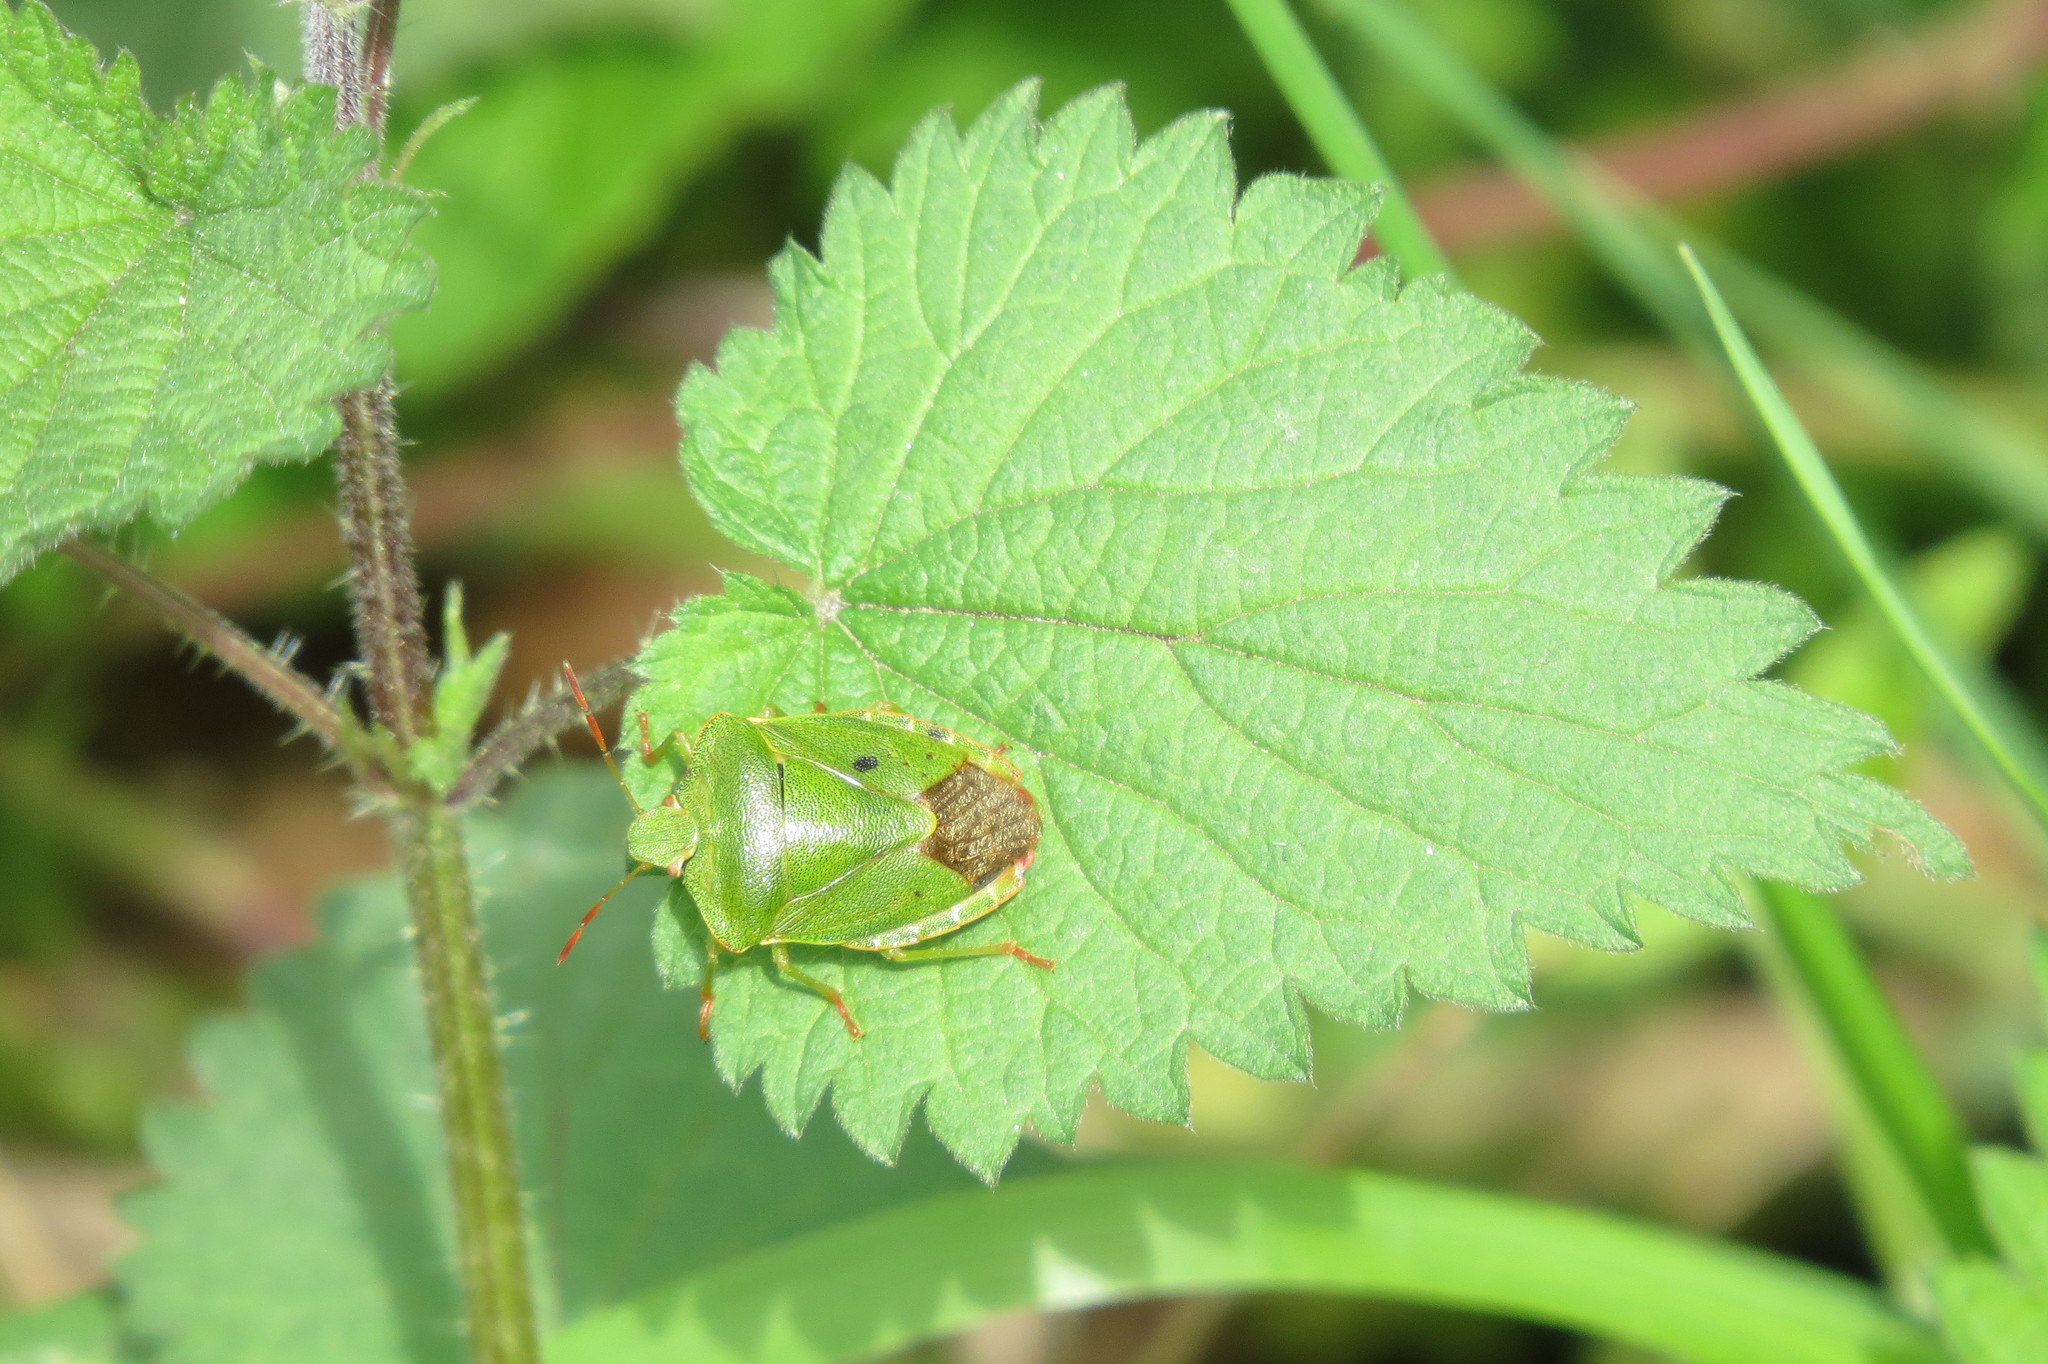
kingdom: Animalia
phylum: Arthropoda
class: Insecta
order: Hemiptera
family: Pentatomidae
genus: Palomena
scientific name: Palomena prasina
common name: Green shieldbug
